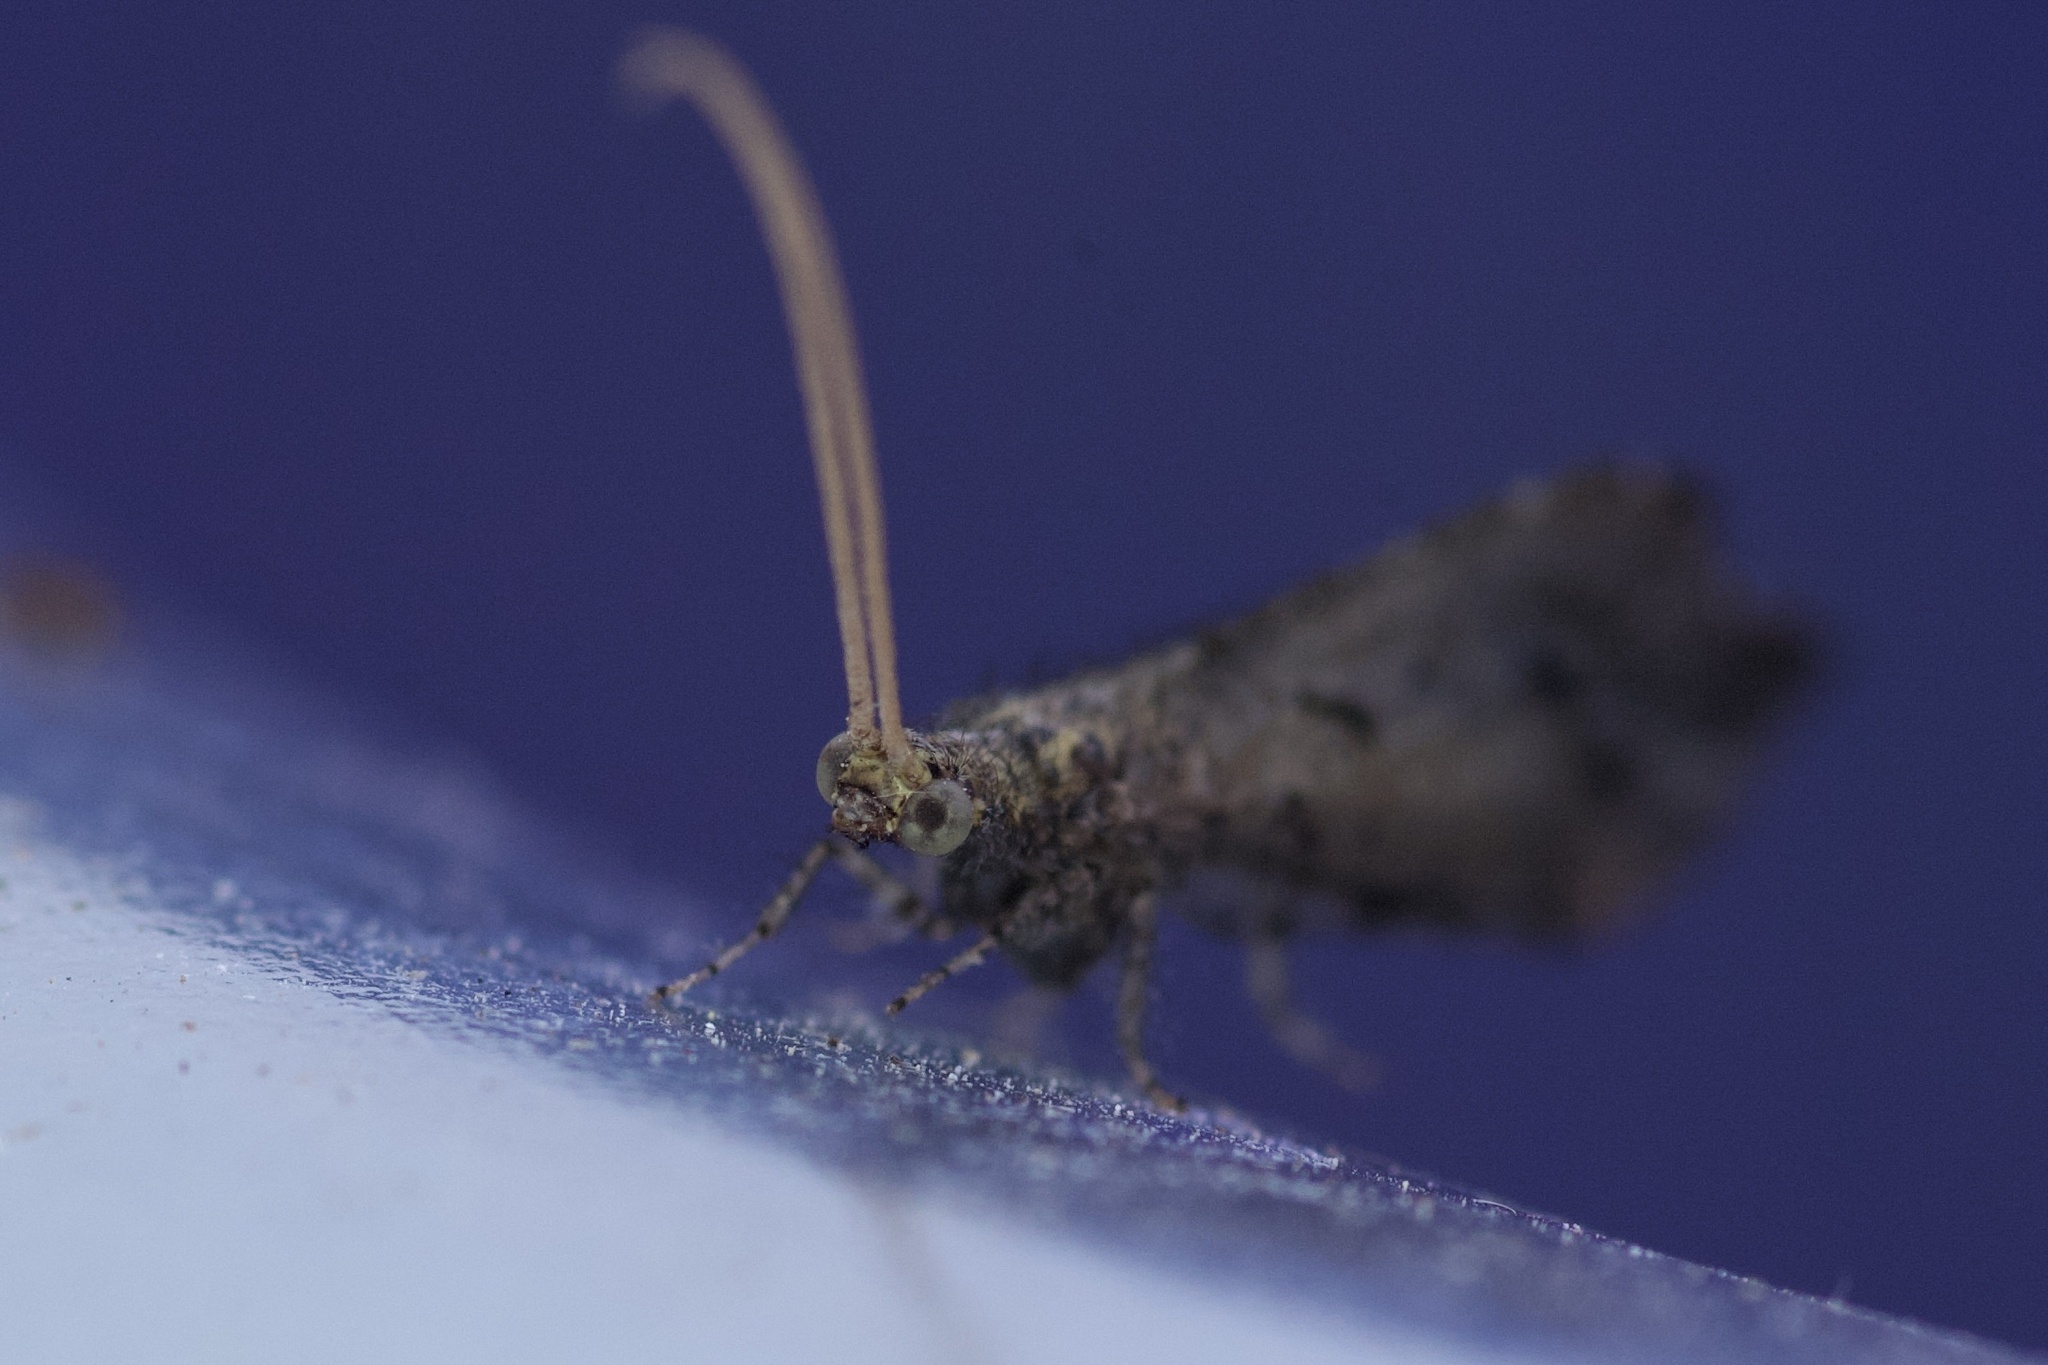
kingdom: Animalia
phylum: Arthropoda
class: Insecta
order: Neuroptera
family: Berothidae
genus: Lomamyia
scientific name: Lomamyia squamosa
